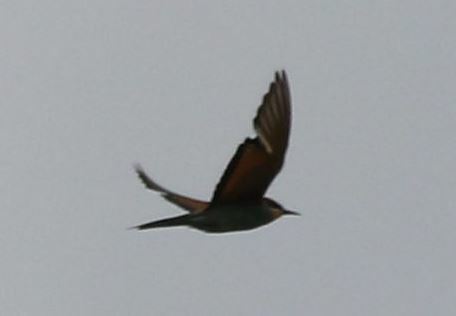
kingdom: Animalia
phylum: Chordata
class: Aves
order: Coraciiformes
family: Meropidae
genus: Merops
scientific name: Merops apiaster
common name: European bee-eater
